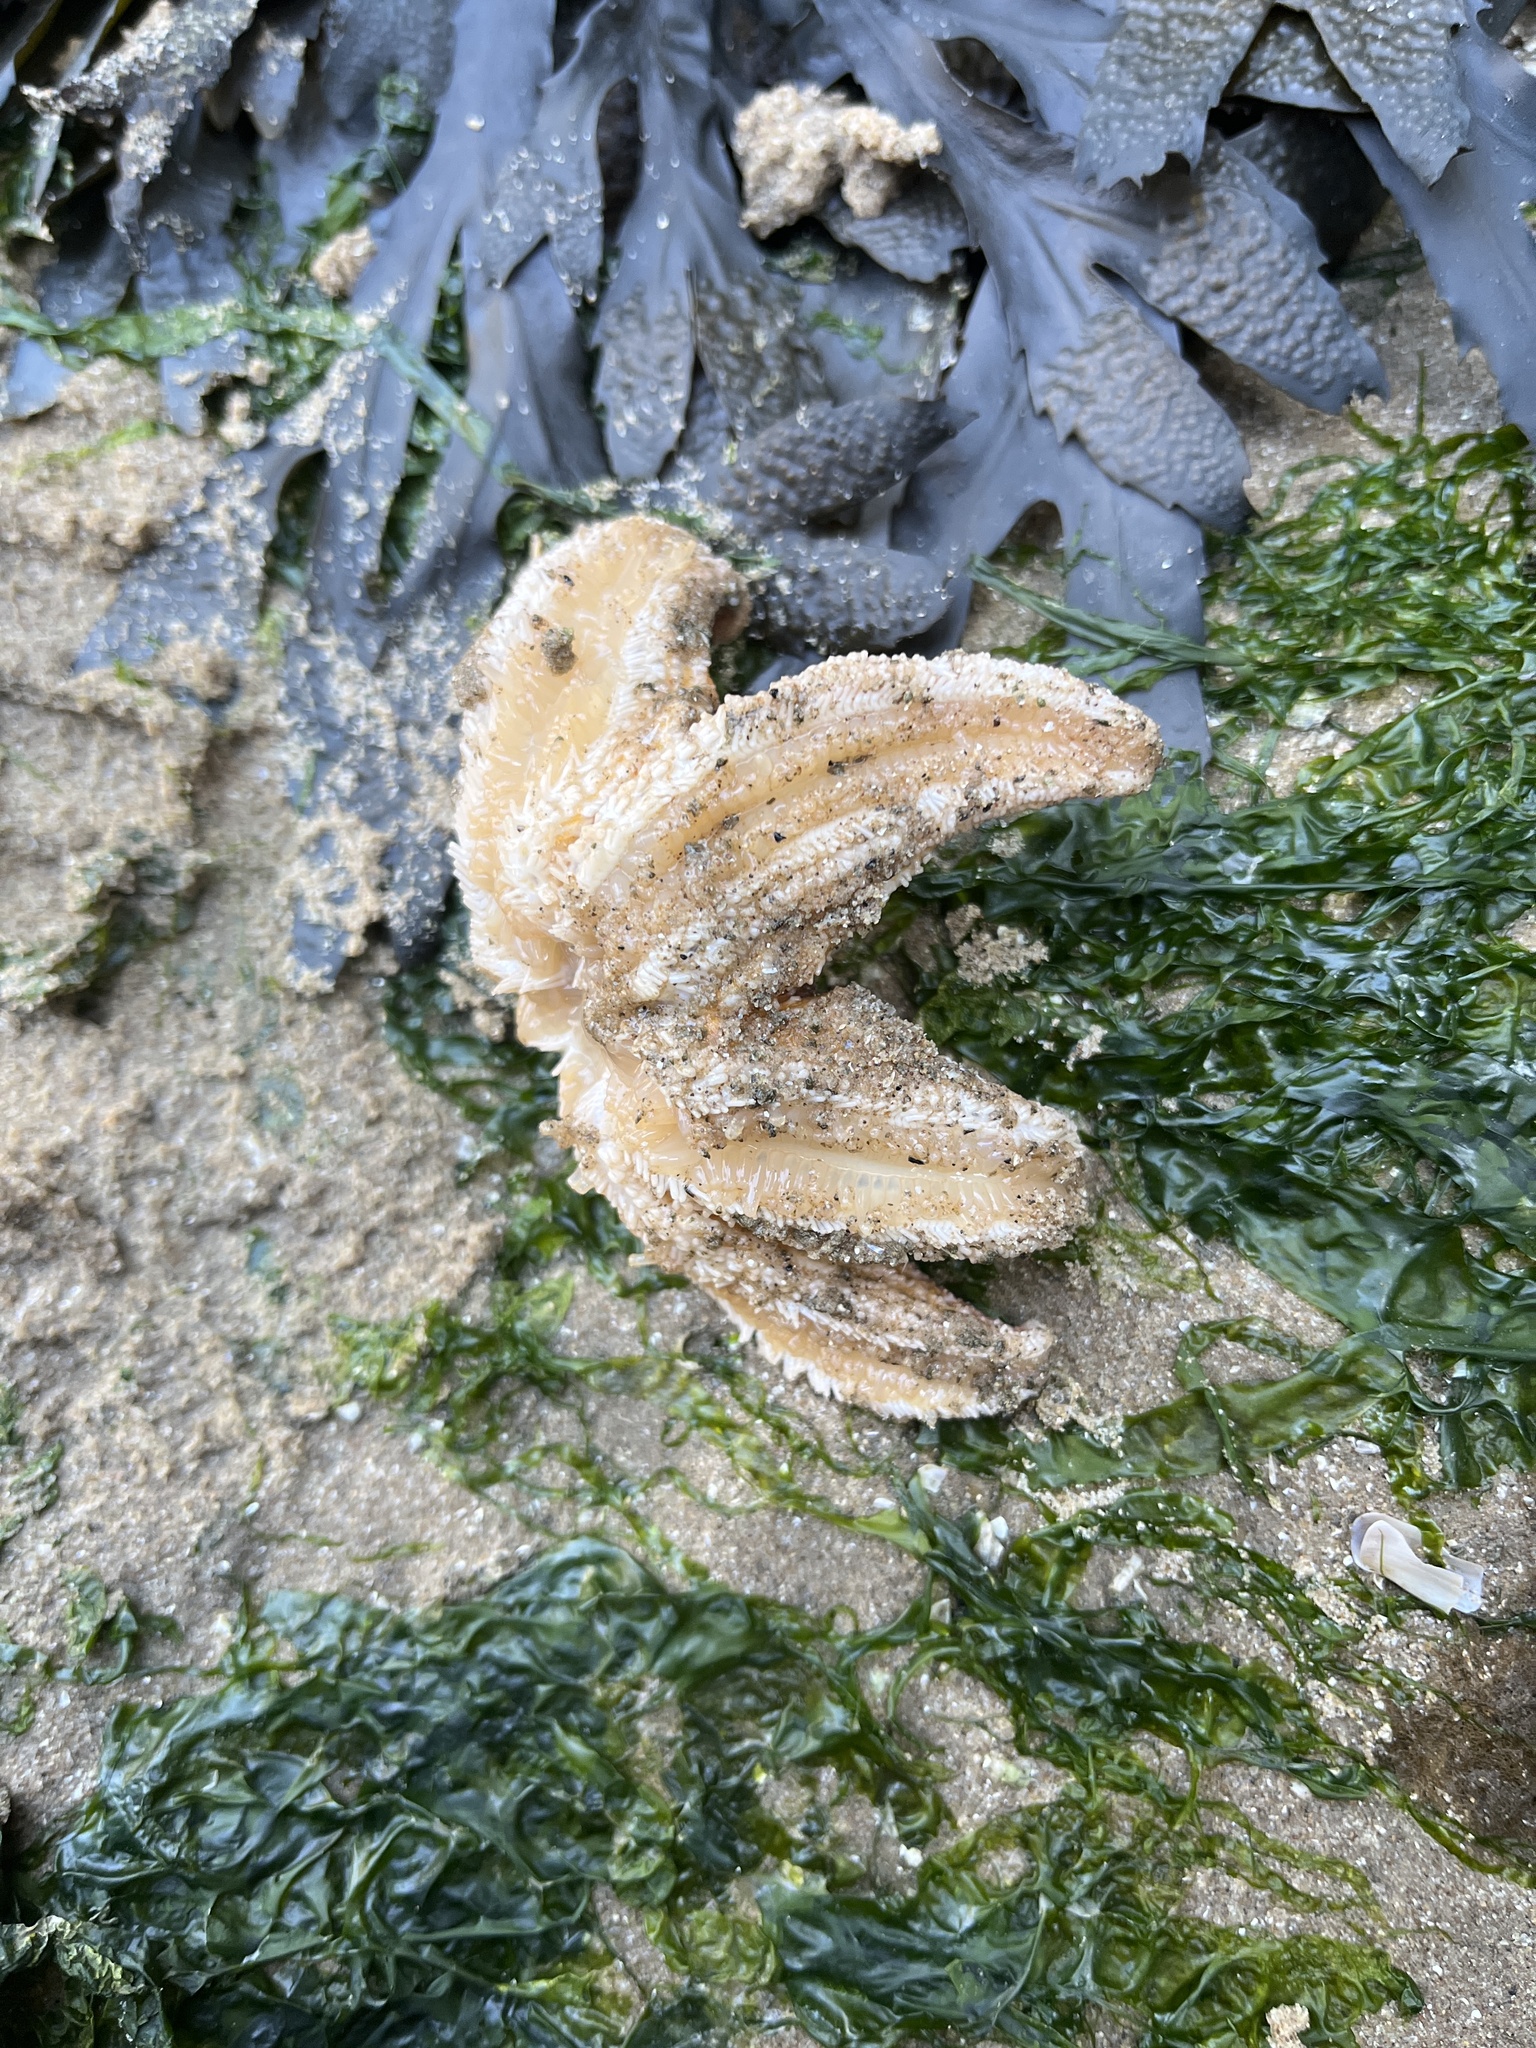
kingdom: Animalia
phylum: Echinodermata
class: Asteroidea
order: Forcipulatida
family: Asteriidae
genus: Asterias
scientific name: Asterias rubens
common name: Common starfish
